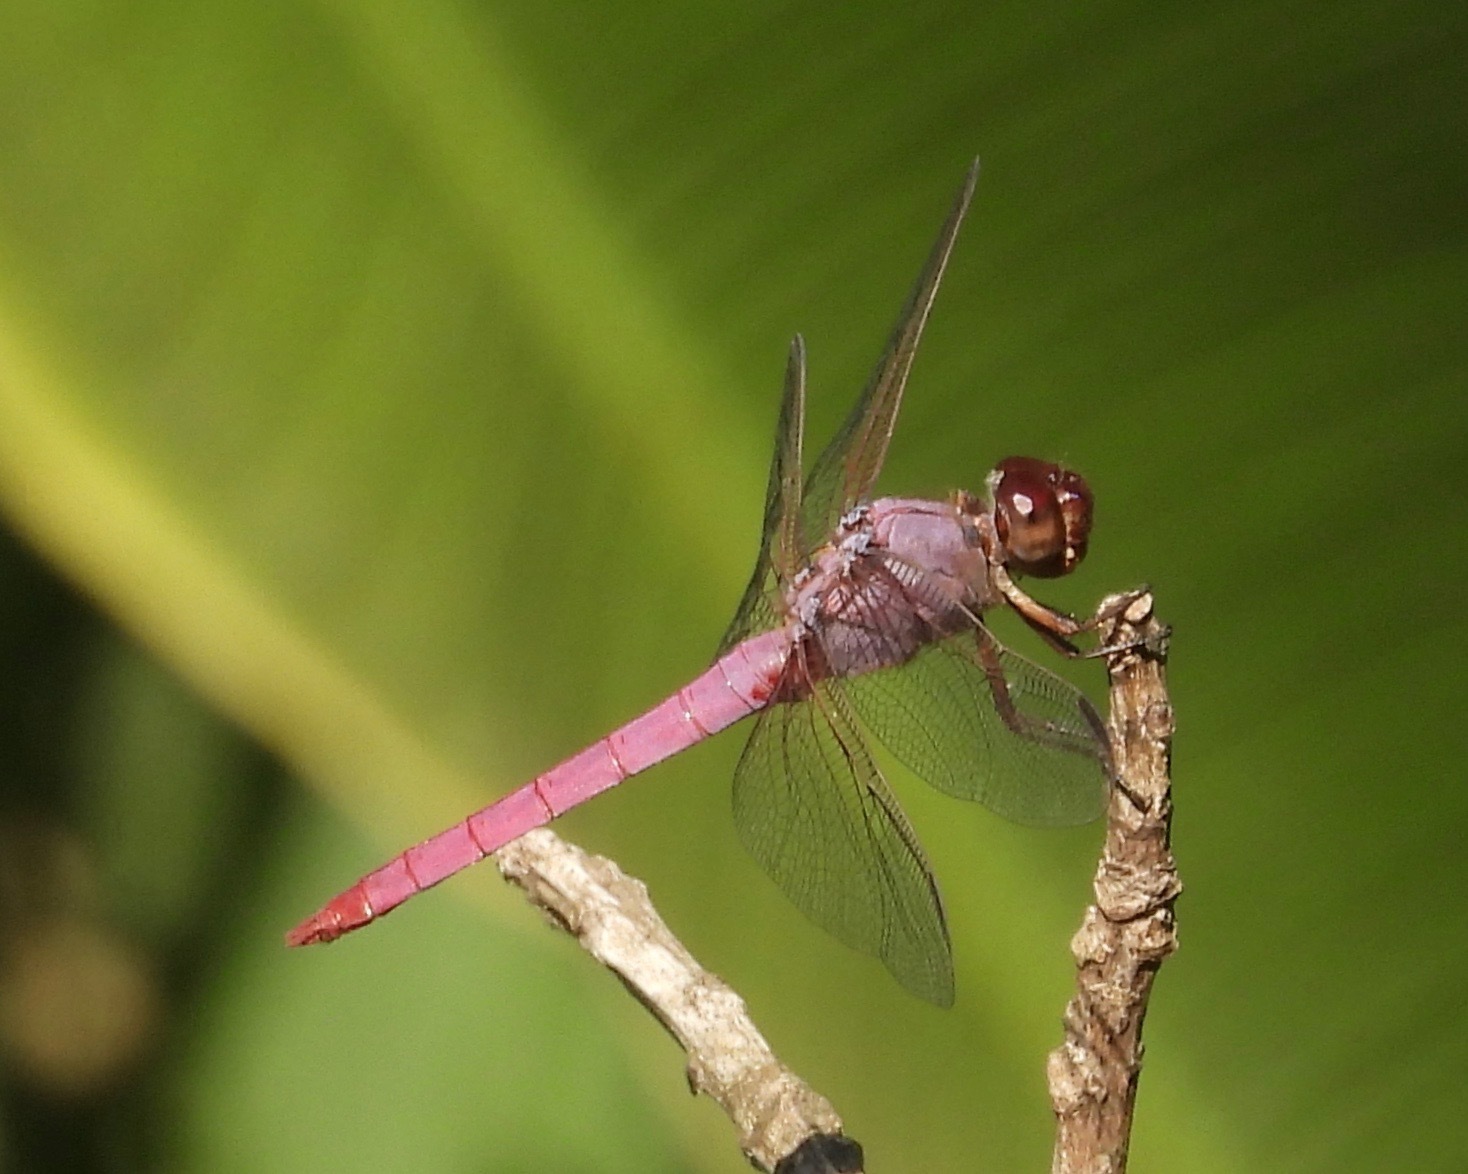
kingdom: Animalia
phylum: Arthropoda
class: Insecta
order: Odonata
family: Libellulidae
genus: Orthemis
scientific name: Orthemis ferruginea
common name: Roseate skimmer
